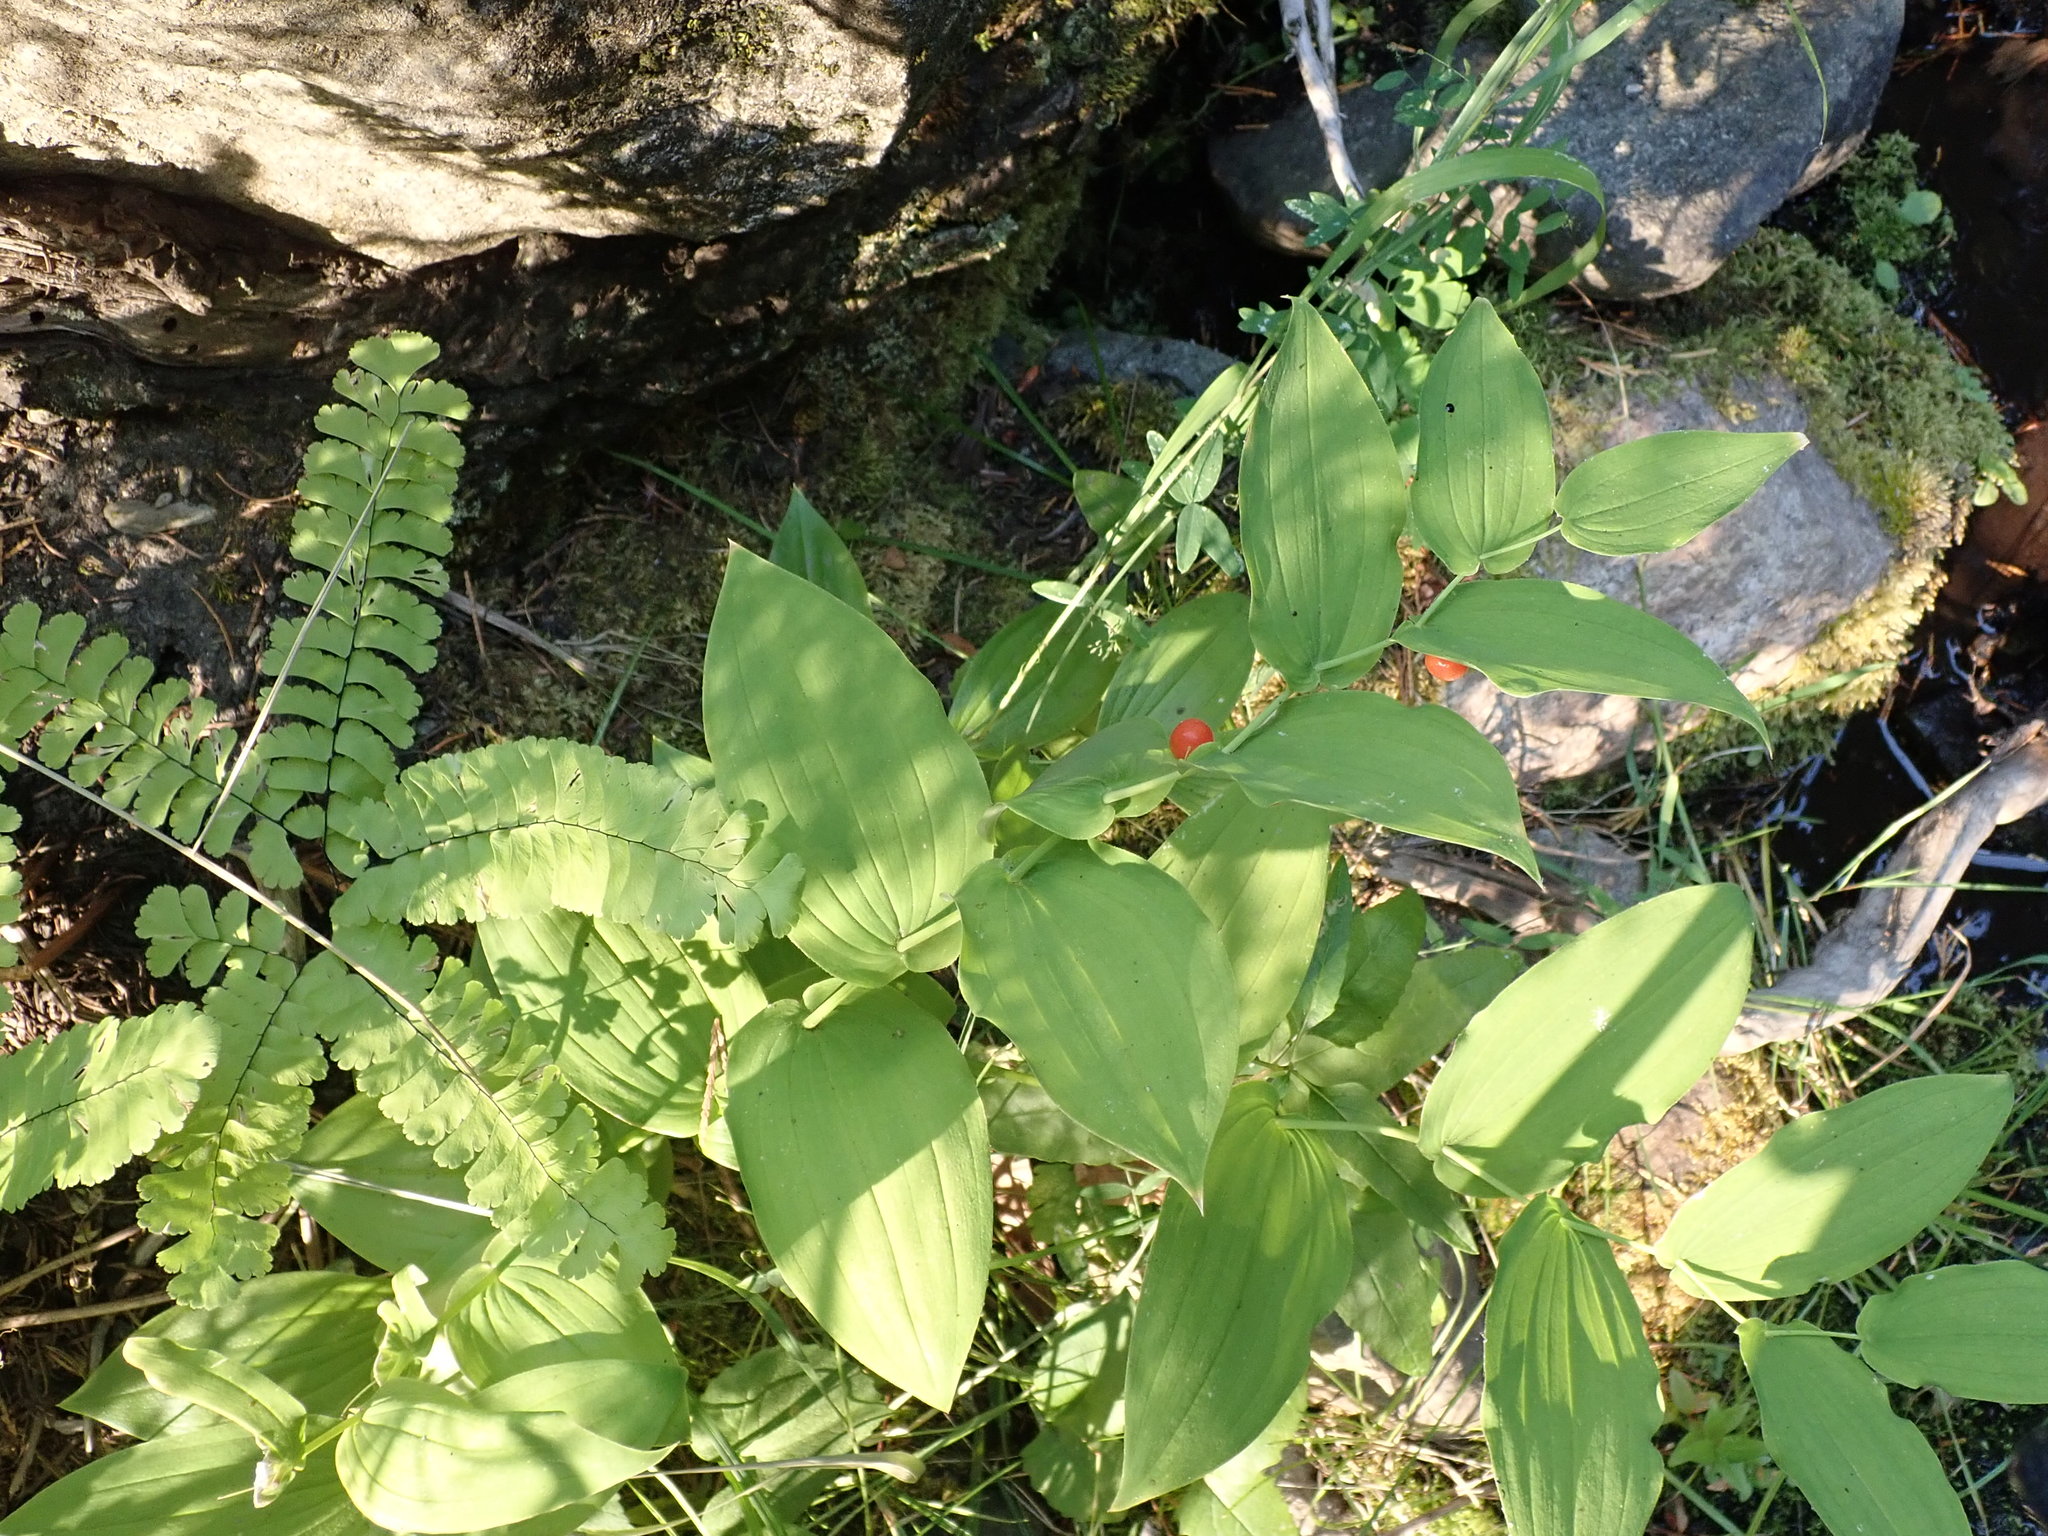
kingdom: Plantae
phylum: Tracheophyta
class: Liliopsida
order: Liliales
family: Liliaceae
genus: Streptopus
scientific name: Streptopus amplexifolius
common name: Clasp twisted stalk
